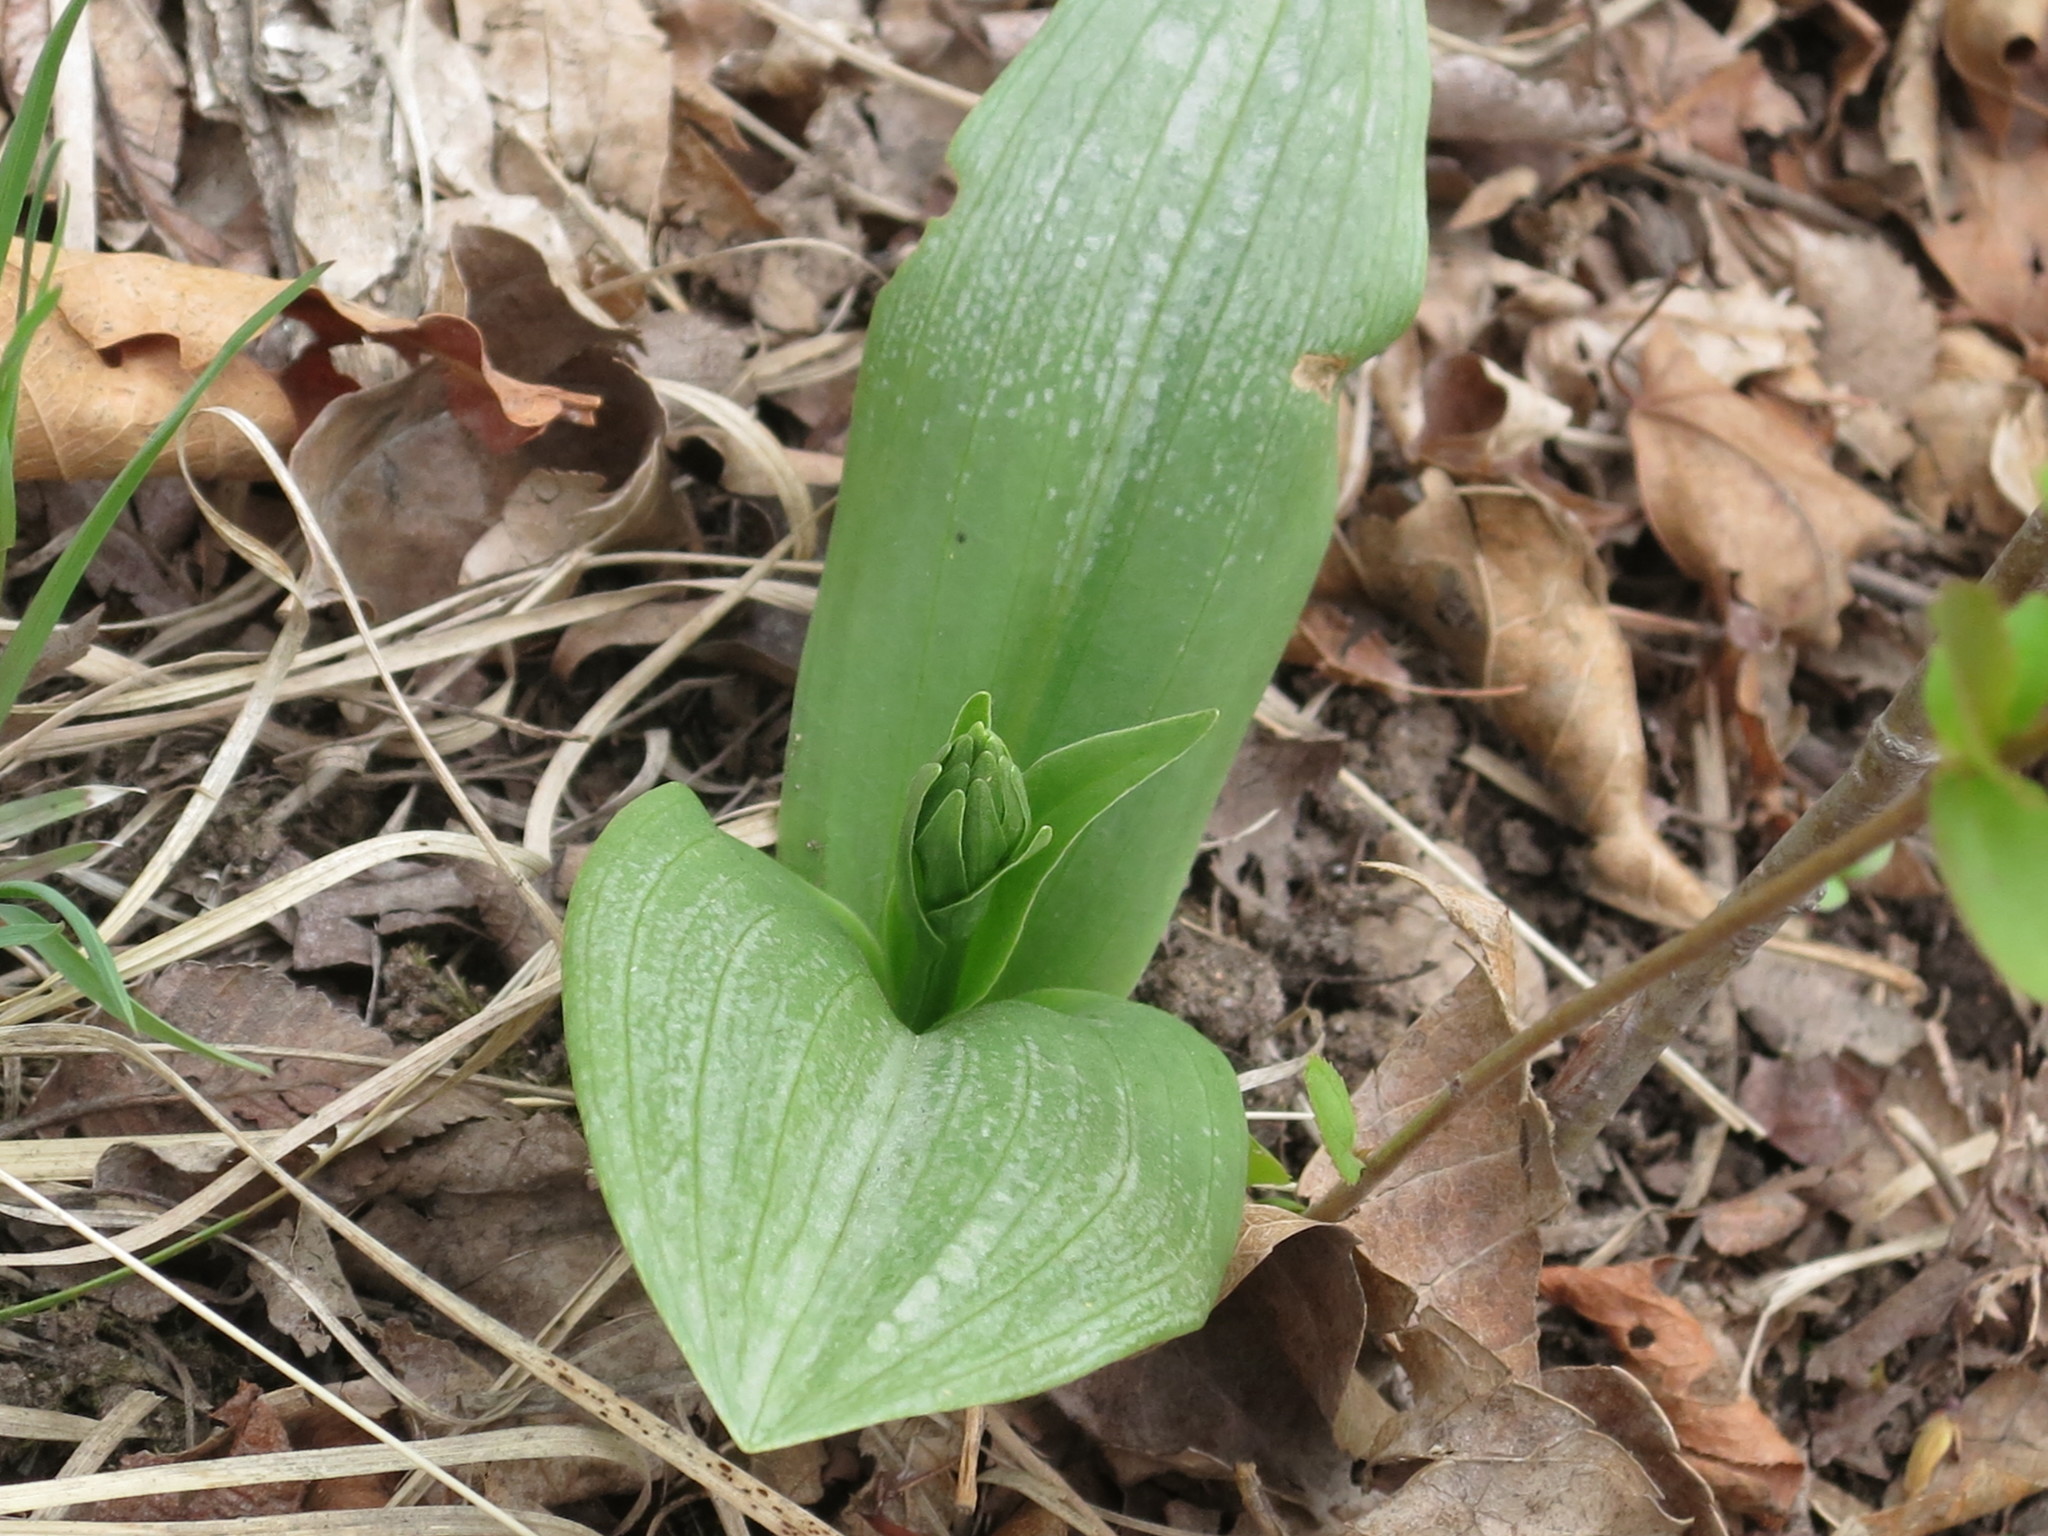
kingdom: Plantae
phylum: Tracheophyta
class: Liliopsida
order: Asparagales
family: Orchidaceae
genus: Platanthera
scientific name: Platanthera densa
